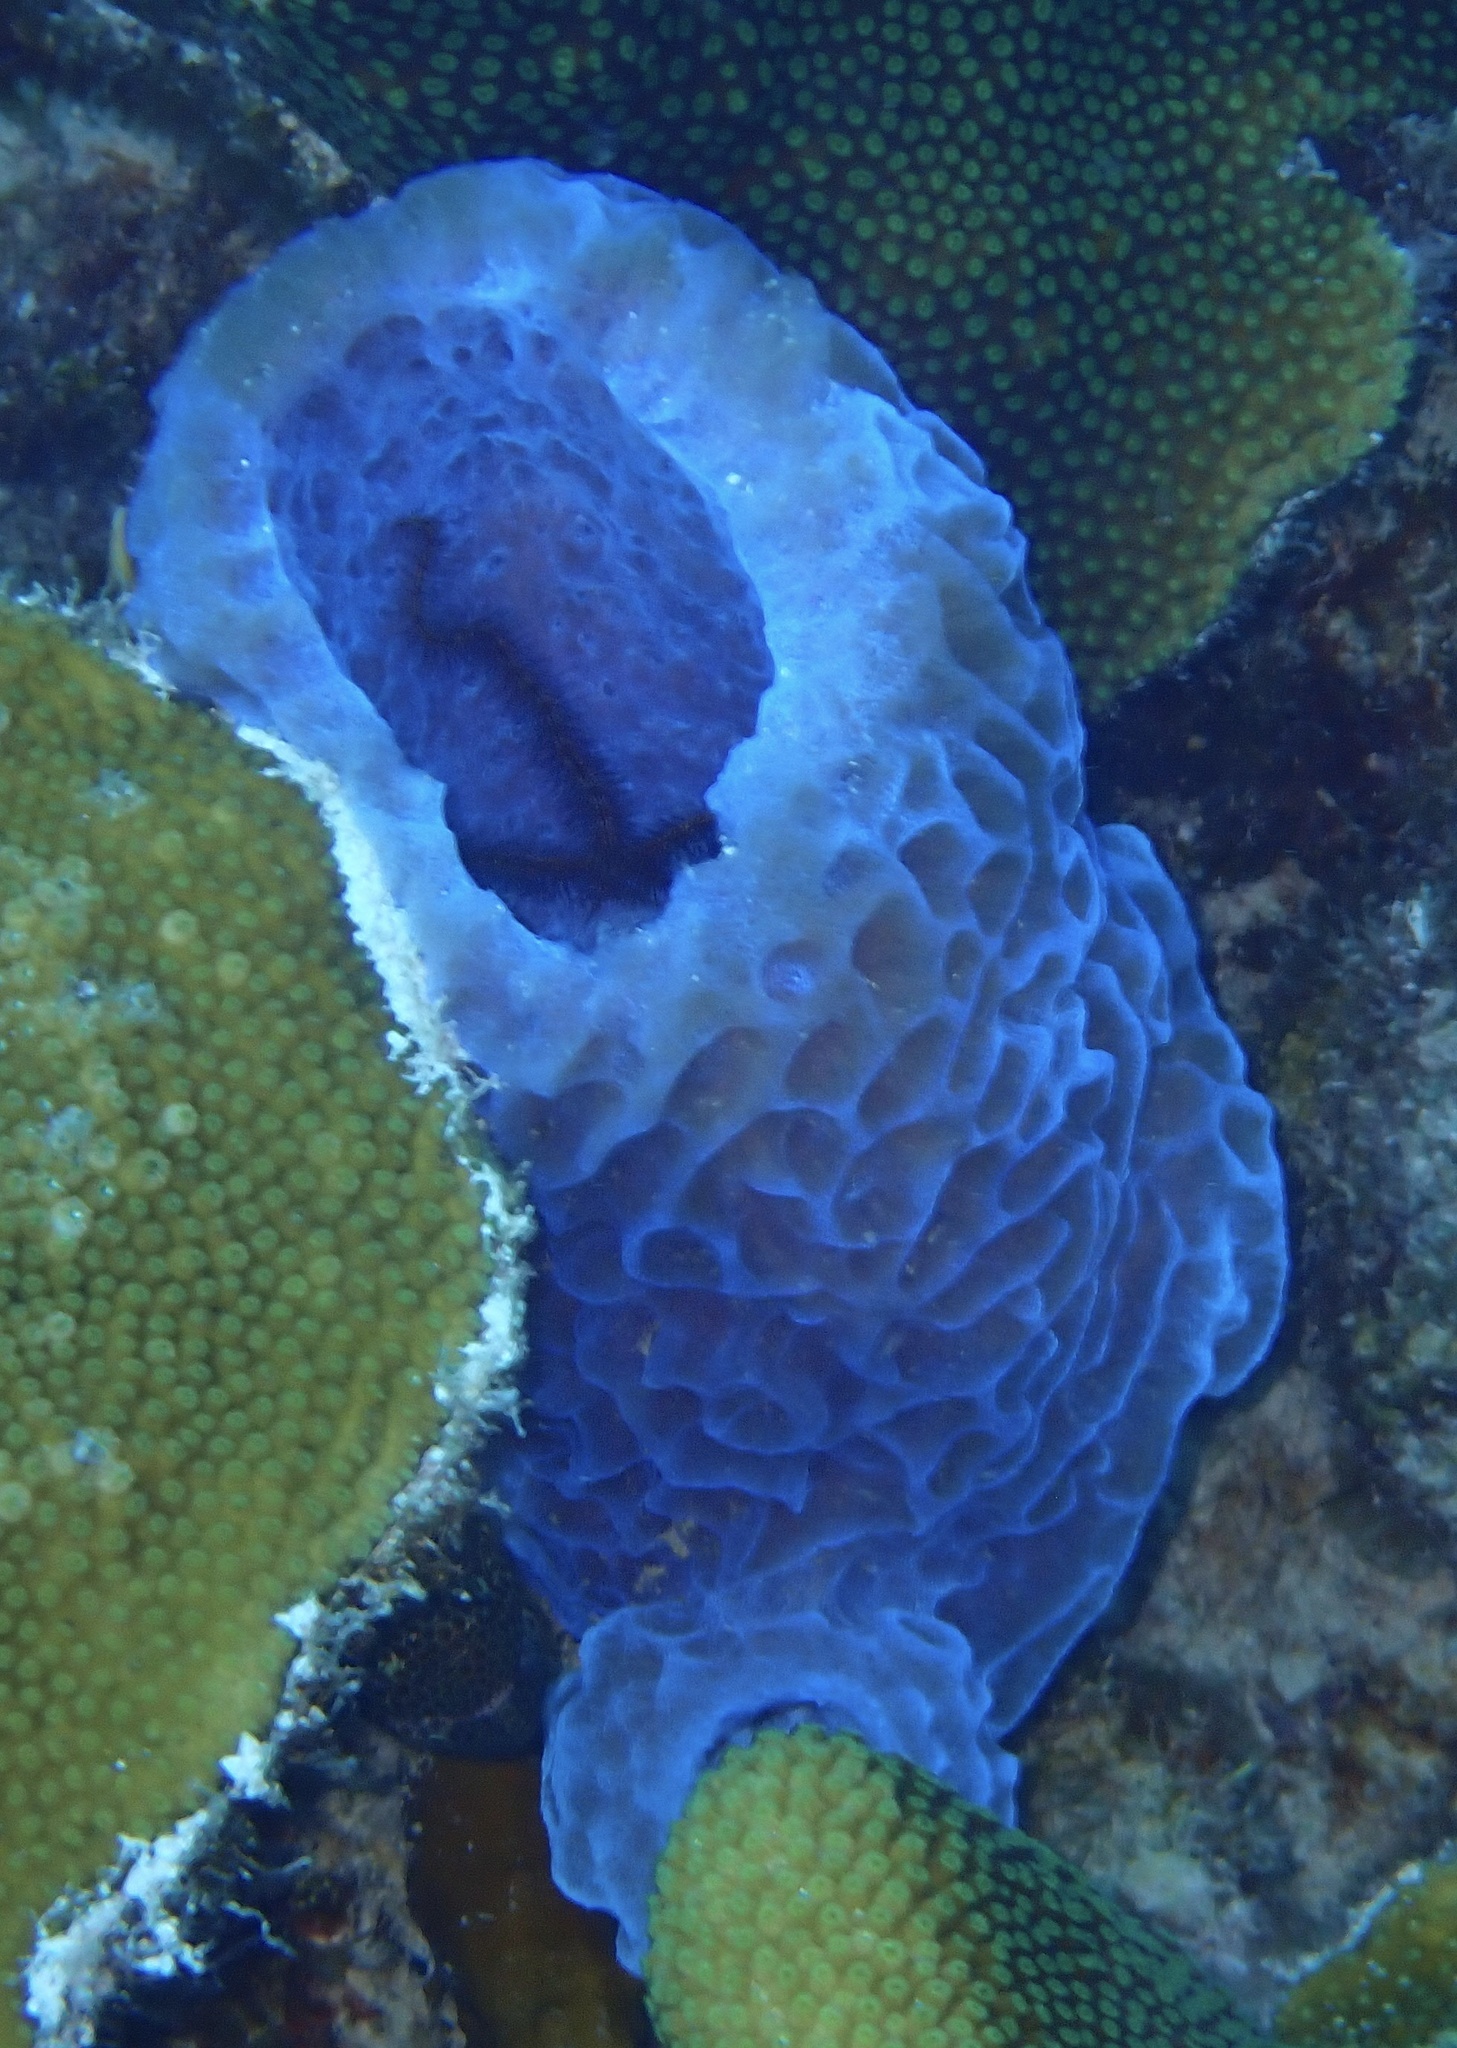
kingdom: Animalia
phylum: Porifera
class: Demospongiae
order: Haplosclerida
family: Callyspongiidae
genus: Callyspongia
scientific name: Callyspongia plicifera
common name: Azure vase sponge
